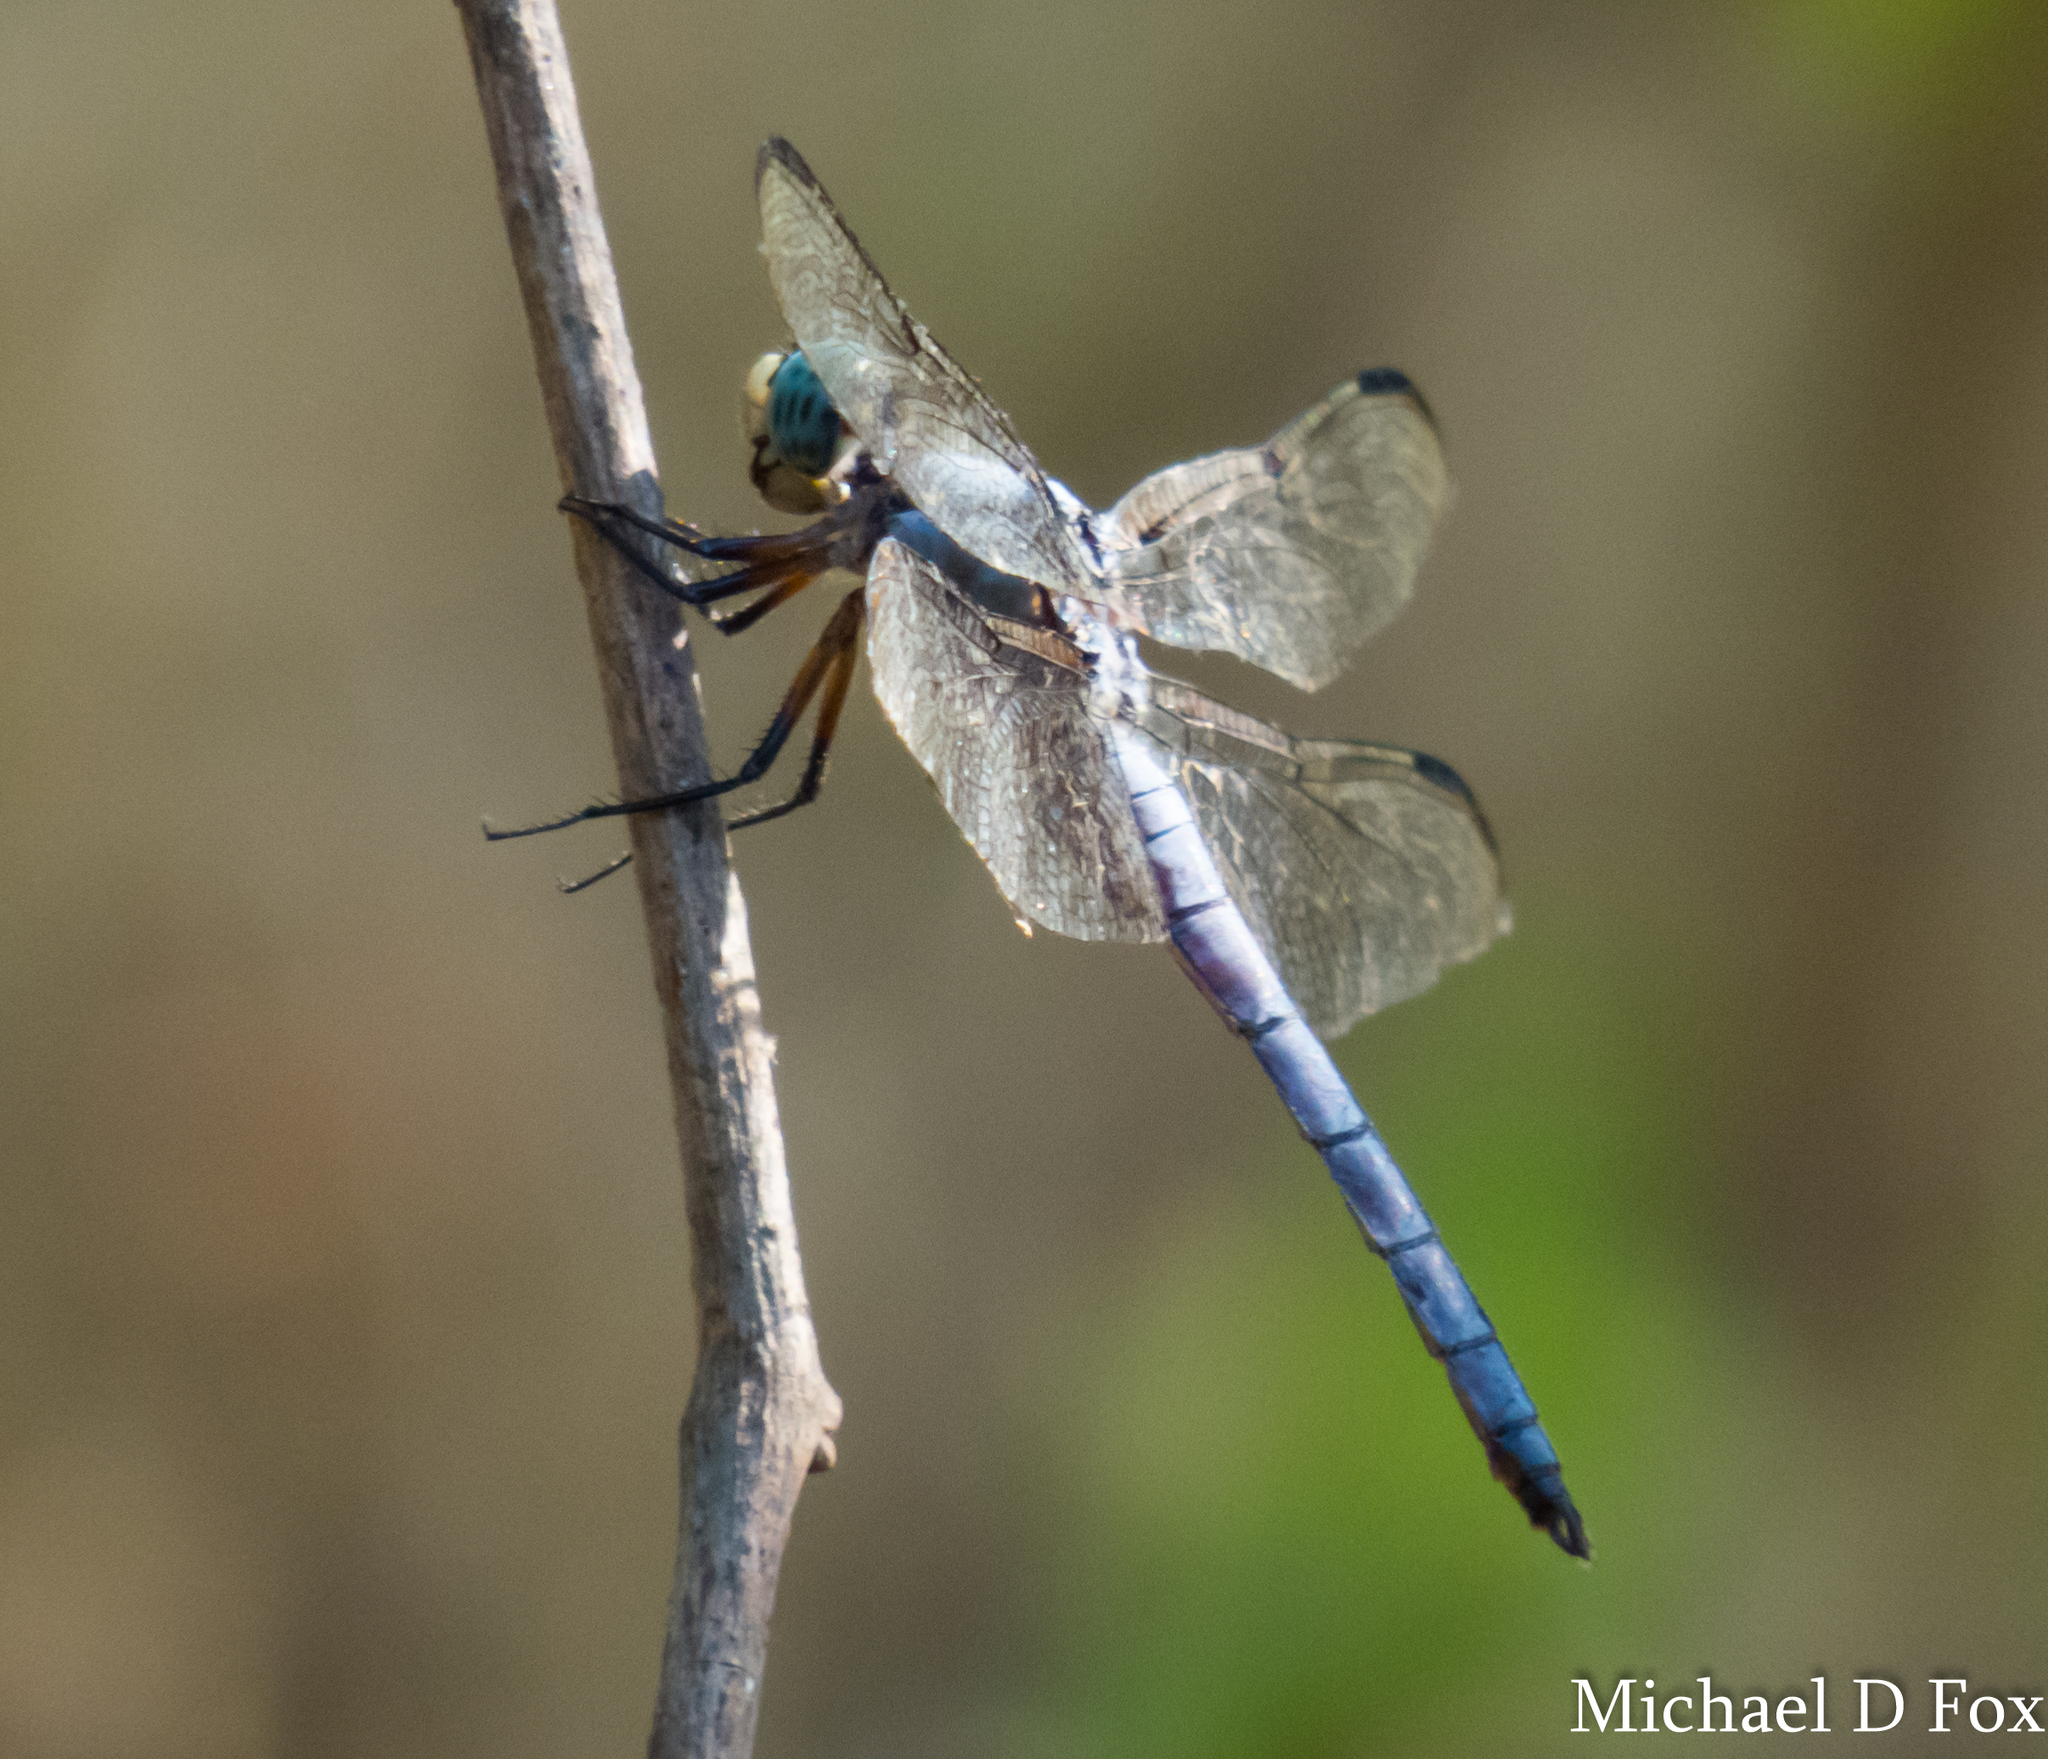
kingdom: Animalia
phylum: Arthropoda
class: Insecta
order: Odonata
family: Libellulidae
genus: Libellula
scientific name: Libellula vibrans
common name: Great blue skimmer
